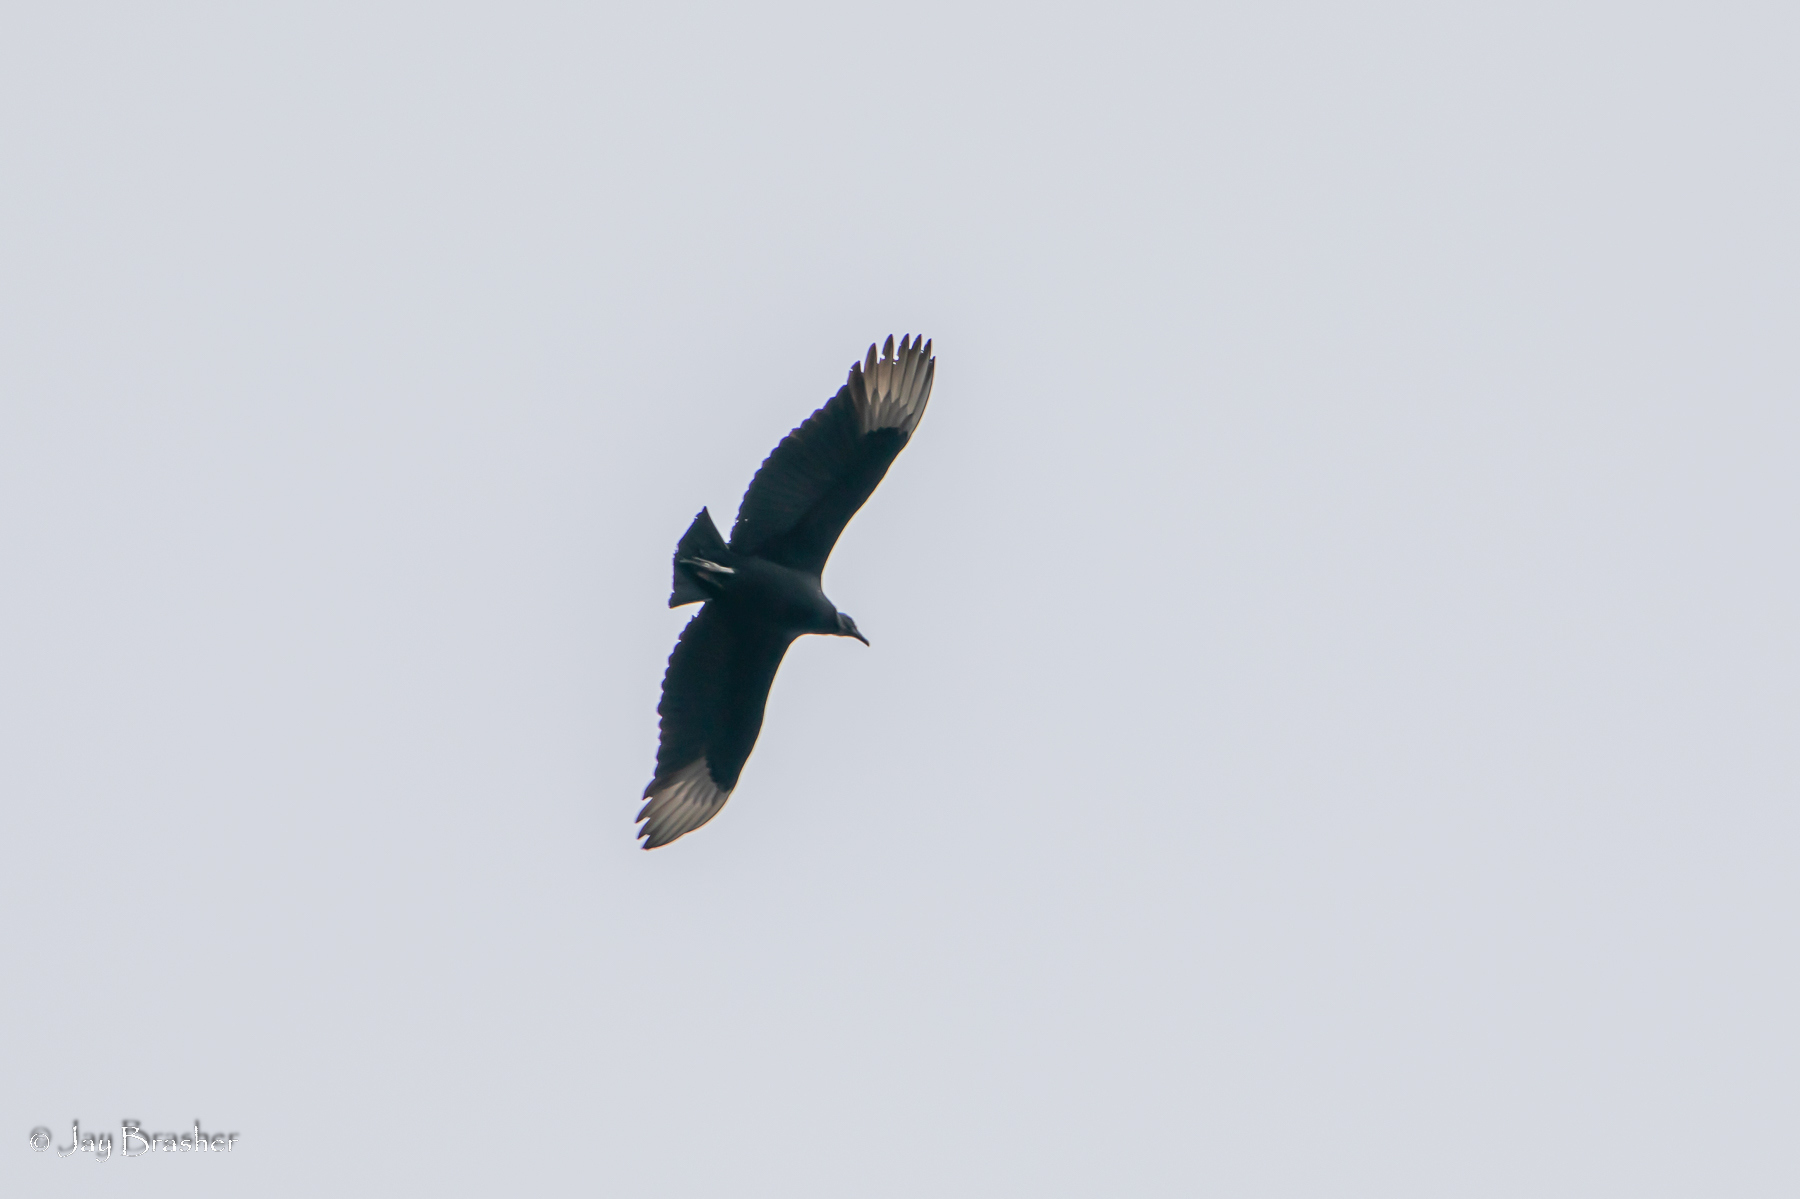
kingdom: Animalia
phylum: Chordata
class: Aves
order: Accipitriformes
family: Cathartidae
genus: Coragyps
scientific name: Coragyps atratus
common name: Black vulture
